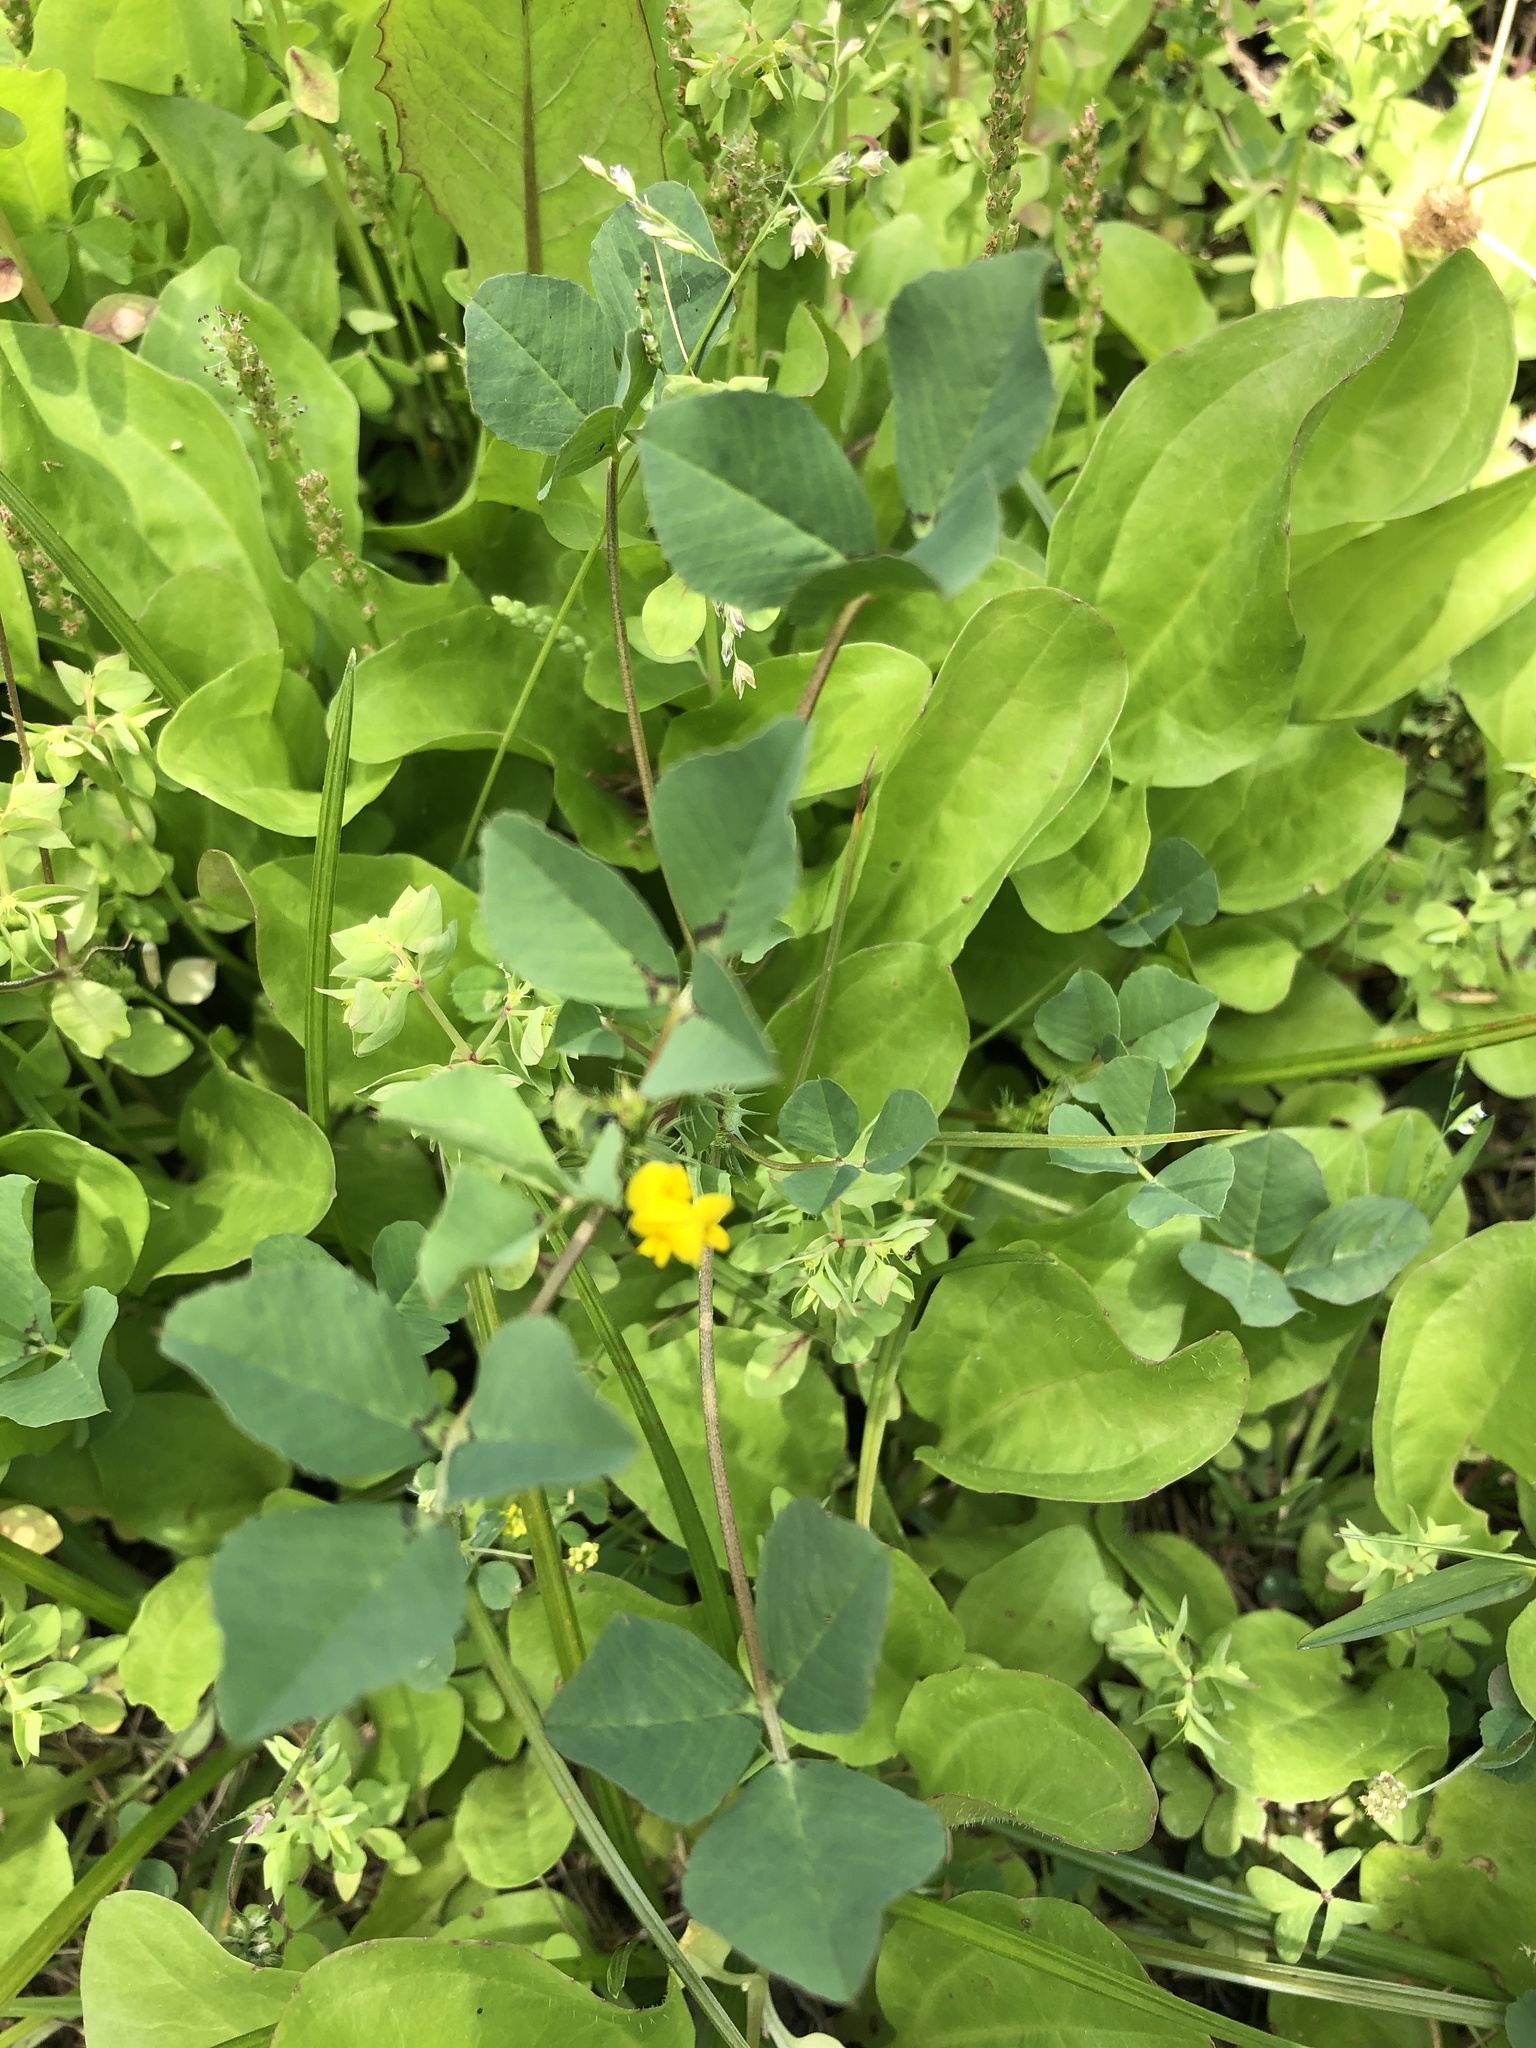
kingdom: Plantae
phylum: Tracheophyta
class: Magnoliopsida
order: Fabales
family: Fabaceae
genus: Medicago
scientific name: Medicago polymorpha
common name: Burclover
